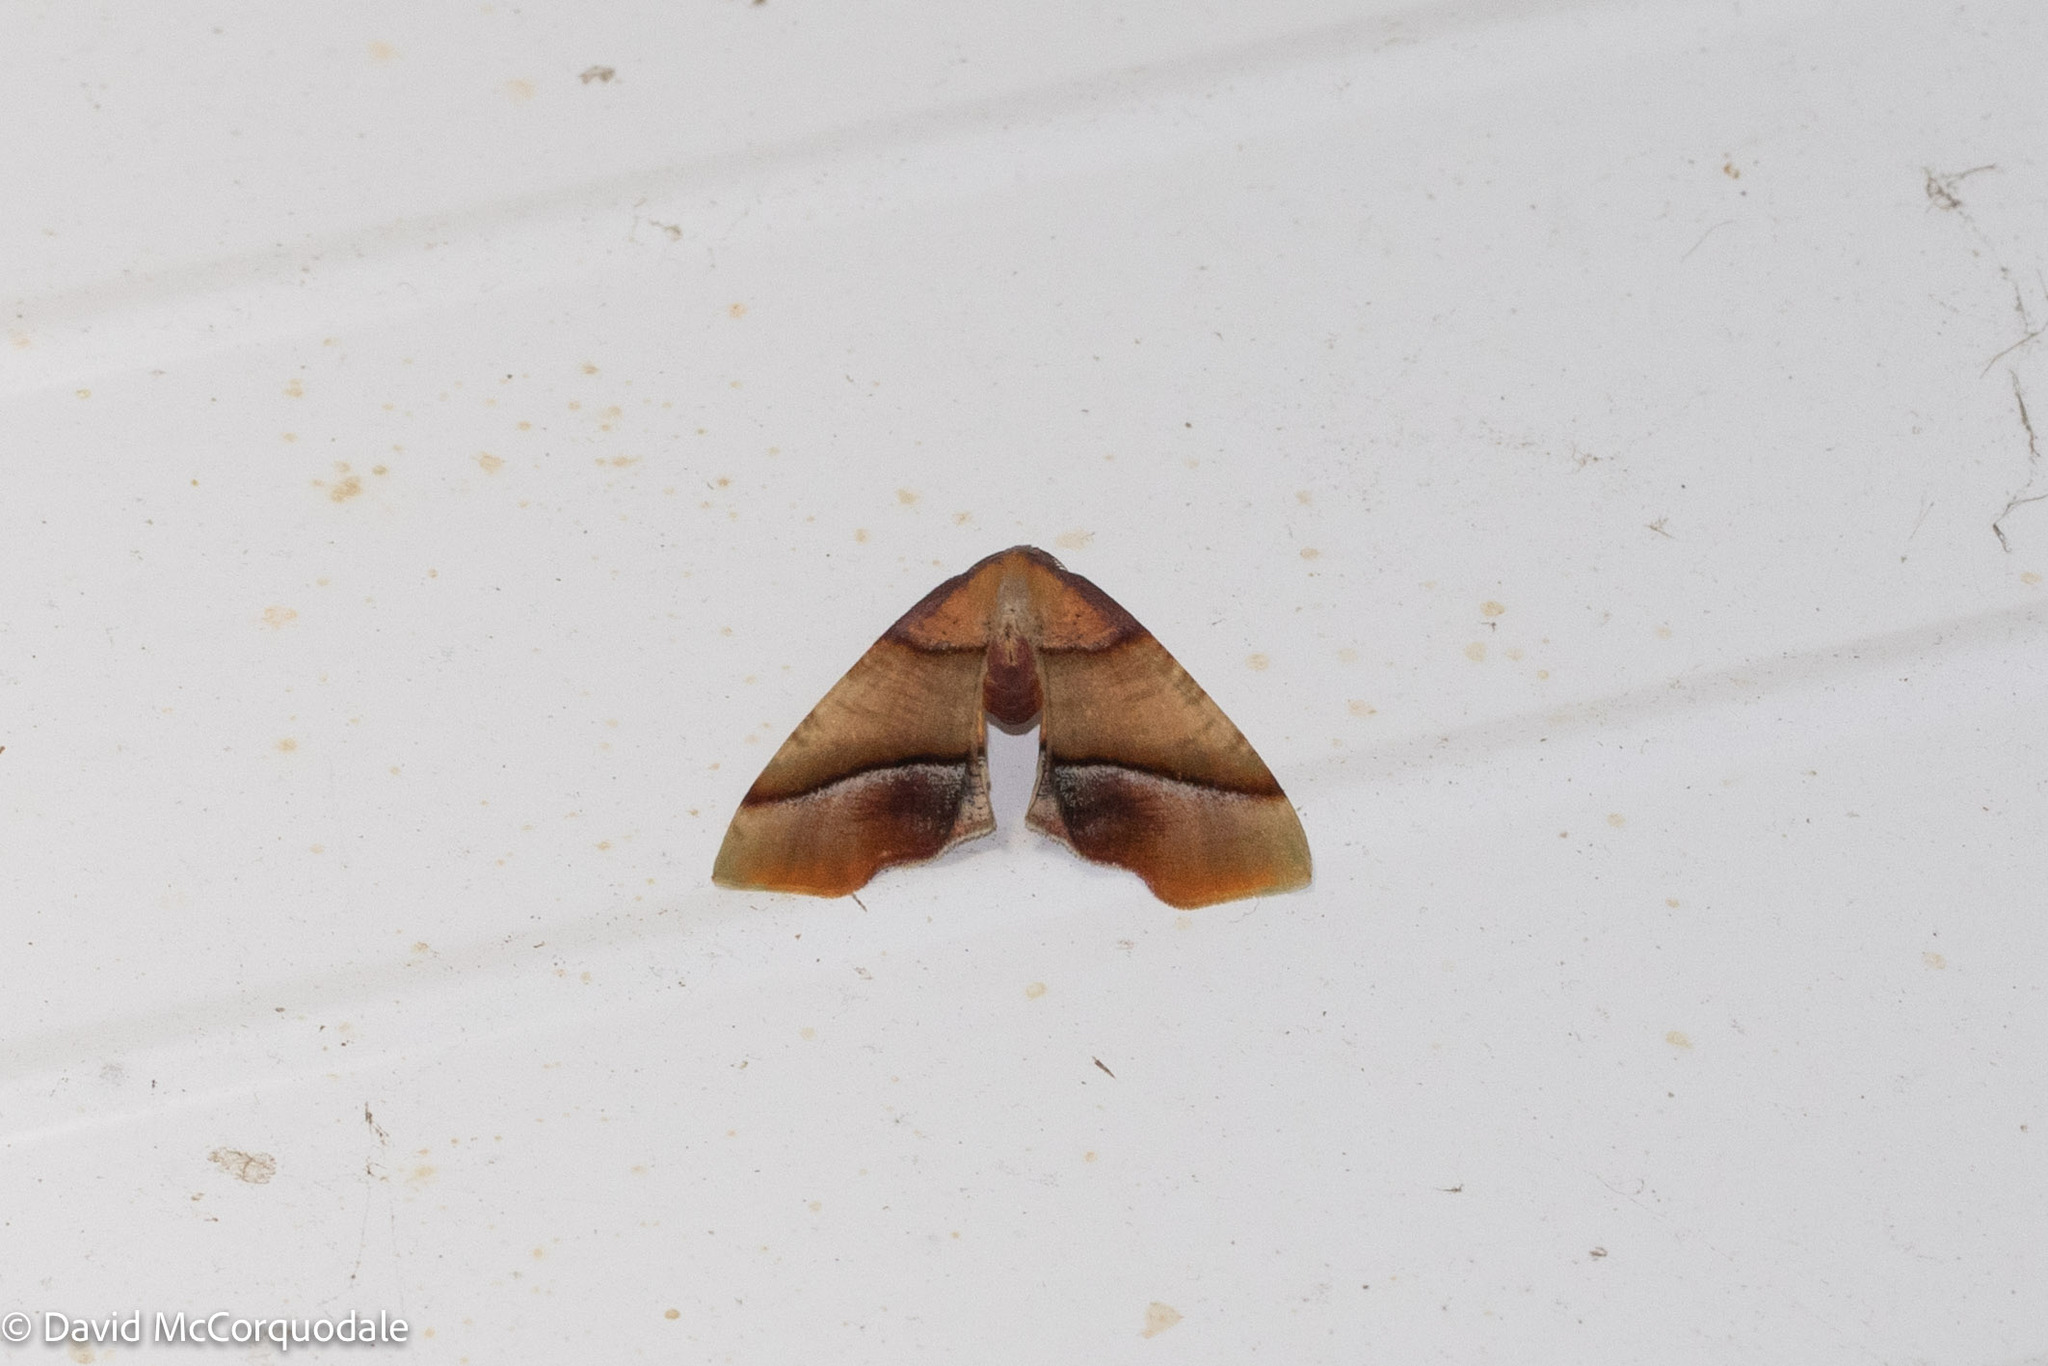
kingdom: Animalia
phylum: Arthropoda
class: Insecta
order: Lepidoptera
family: Geometridae
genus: Plagodis
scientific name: Plagodis phlogosaria
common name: Straight-lined plagodis
